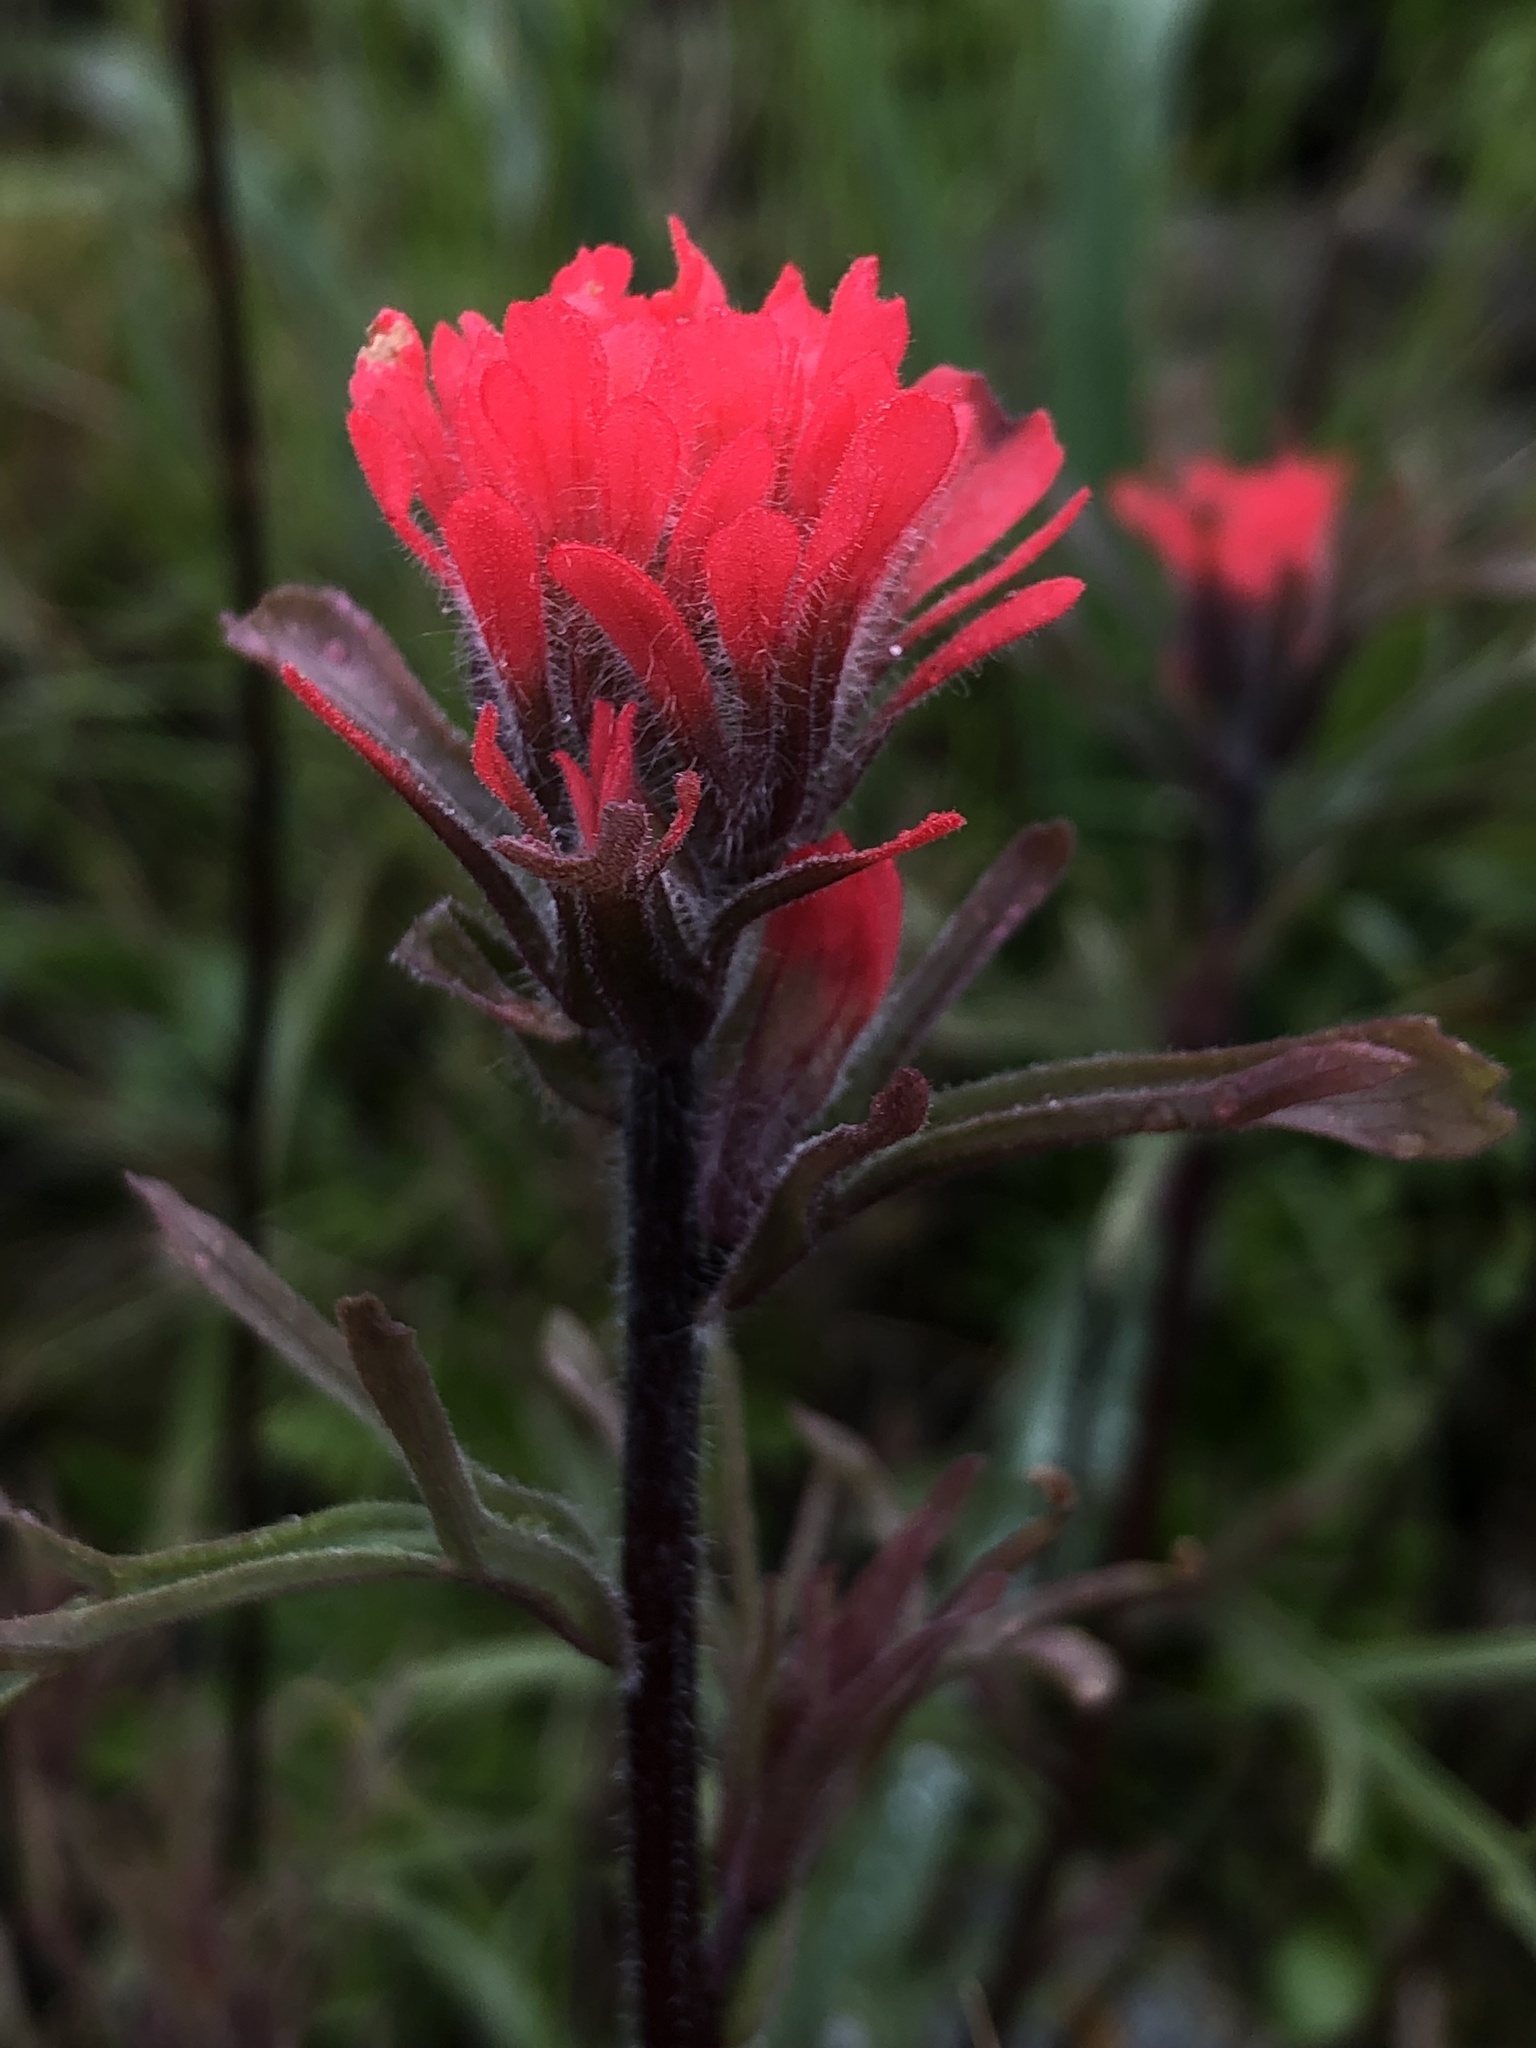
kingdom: Plantae
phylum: Tracheophyta
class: Magnoliopsida
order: Lamiales
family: Orobanchaceae
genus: Castilleja
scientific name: Castilleja affinis
